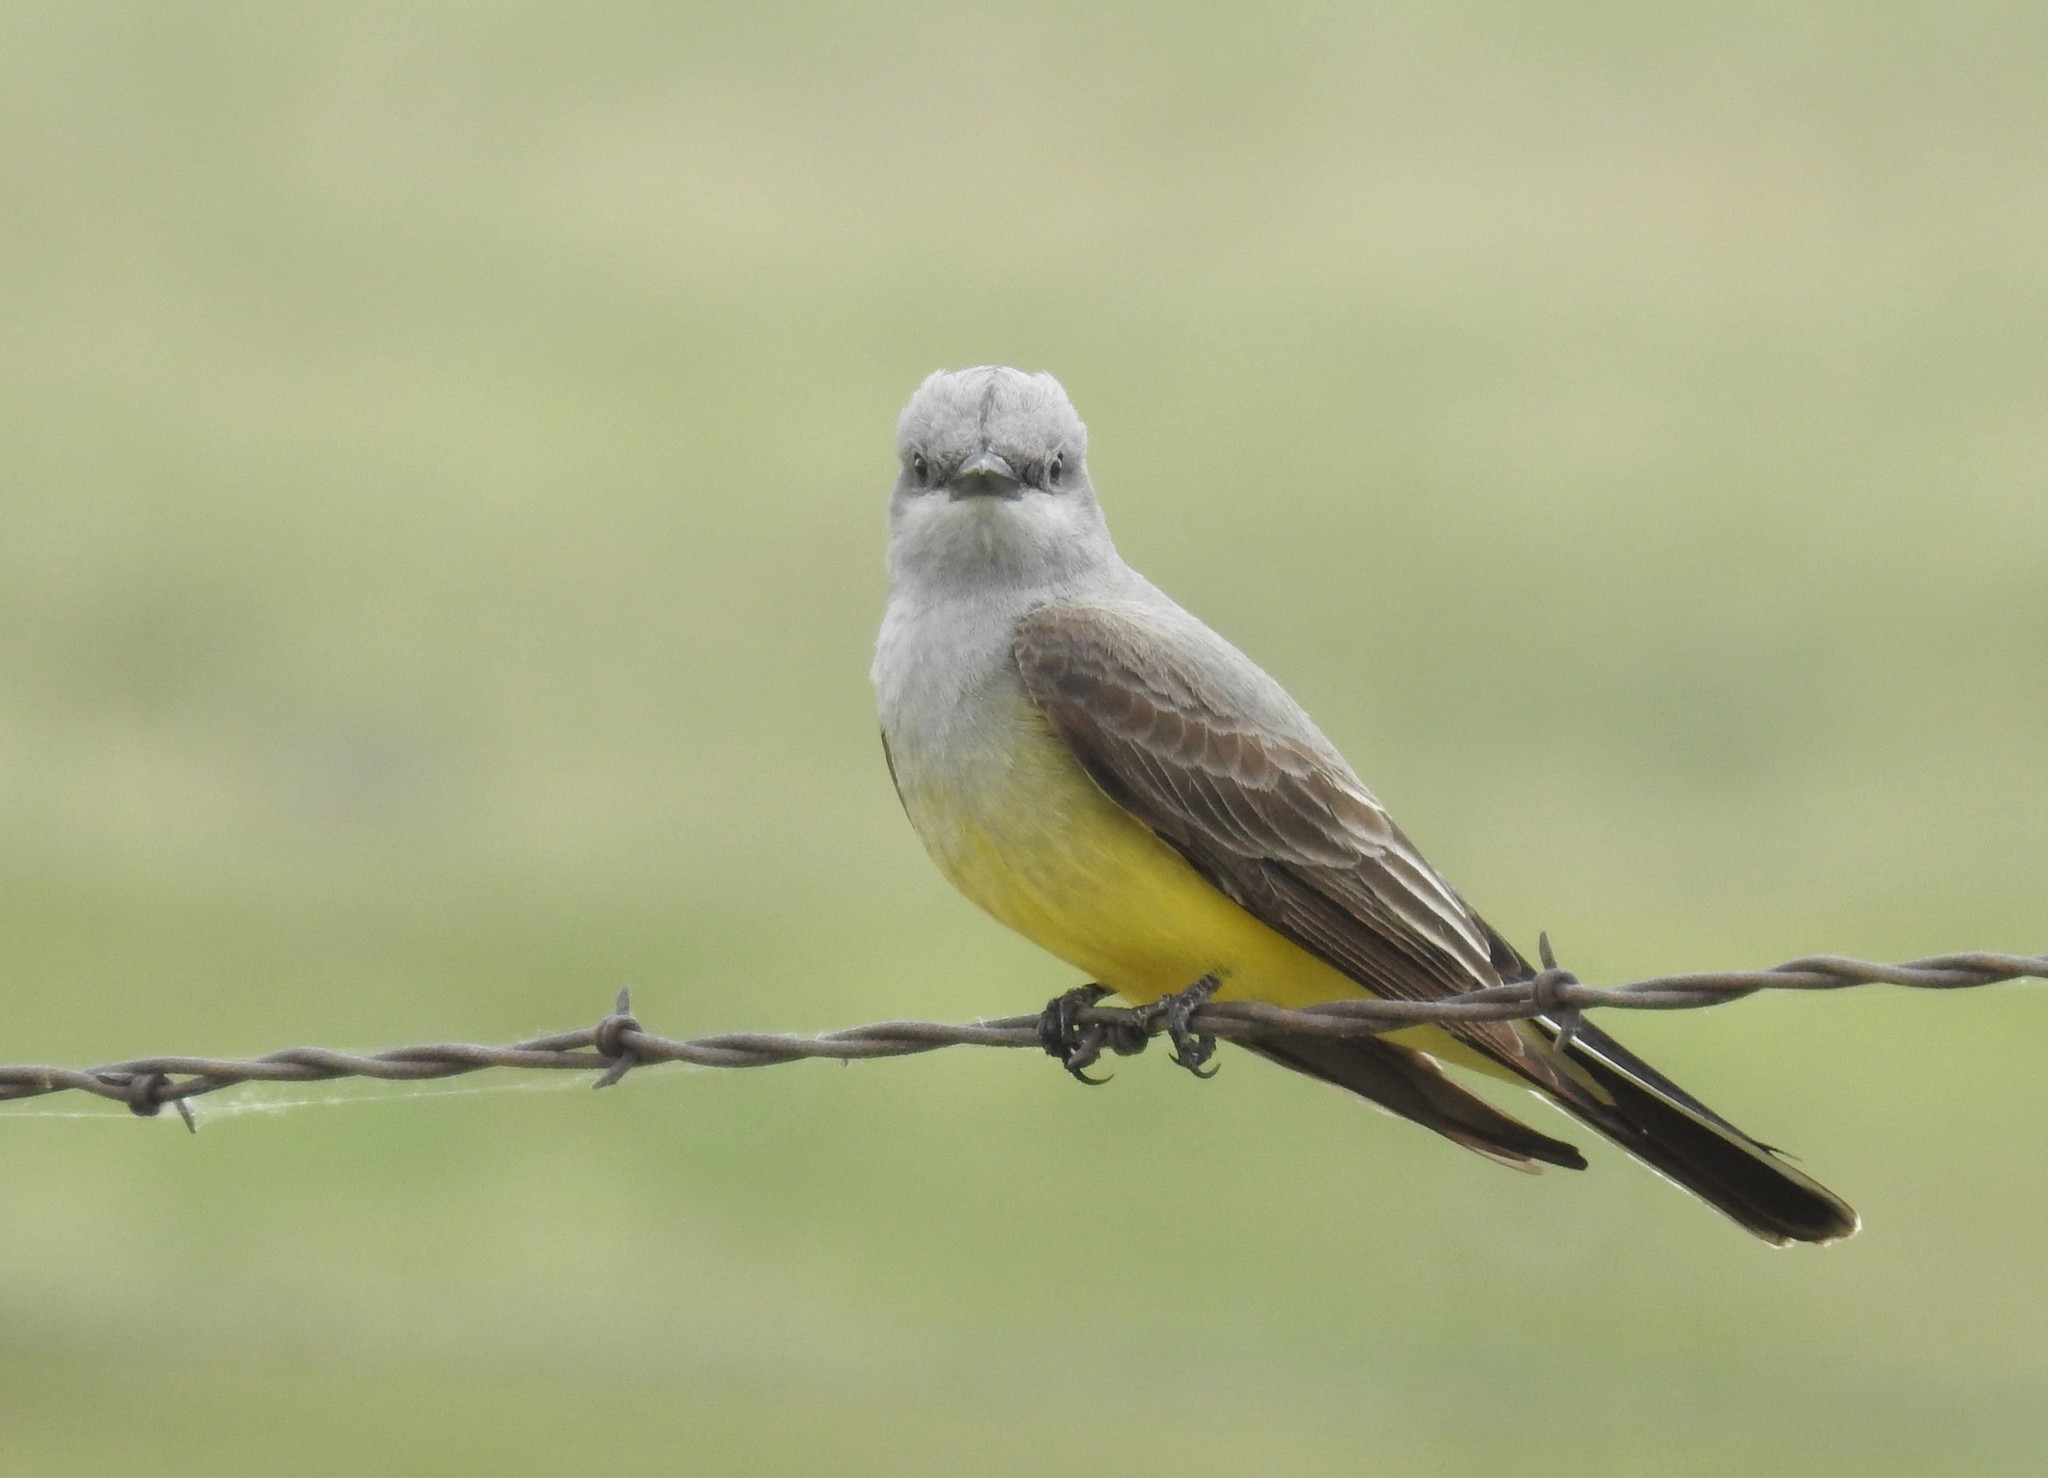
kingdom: Animalia
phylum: Chordata
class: Aves
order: Passeriformes
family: Tyrannidae
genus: Tyrannus
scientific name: Tyrannus verticalis
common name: Western kingbird
